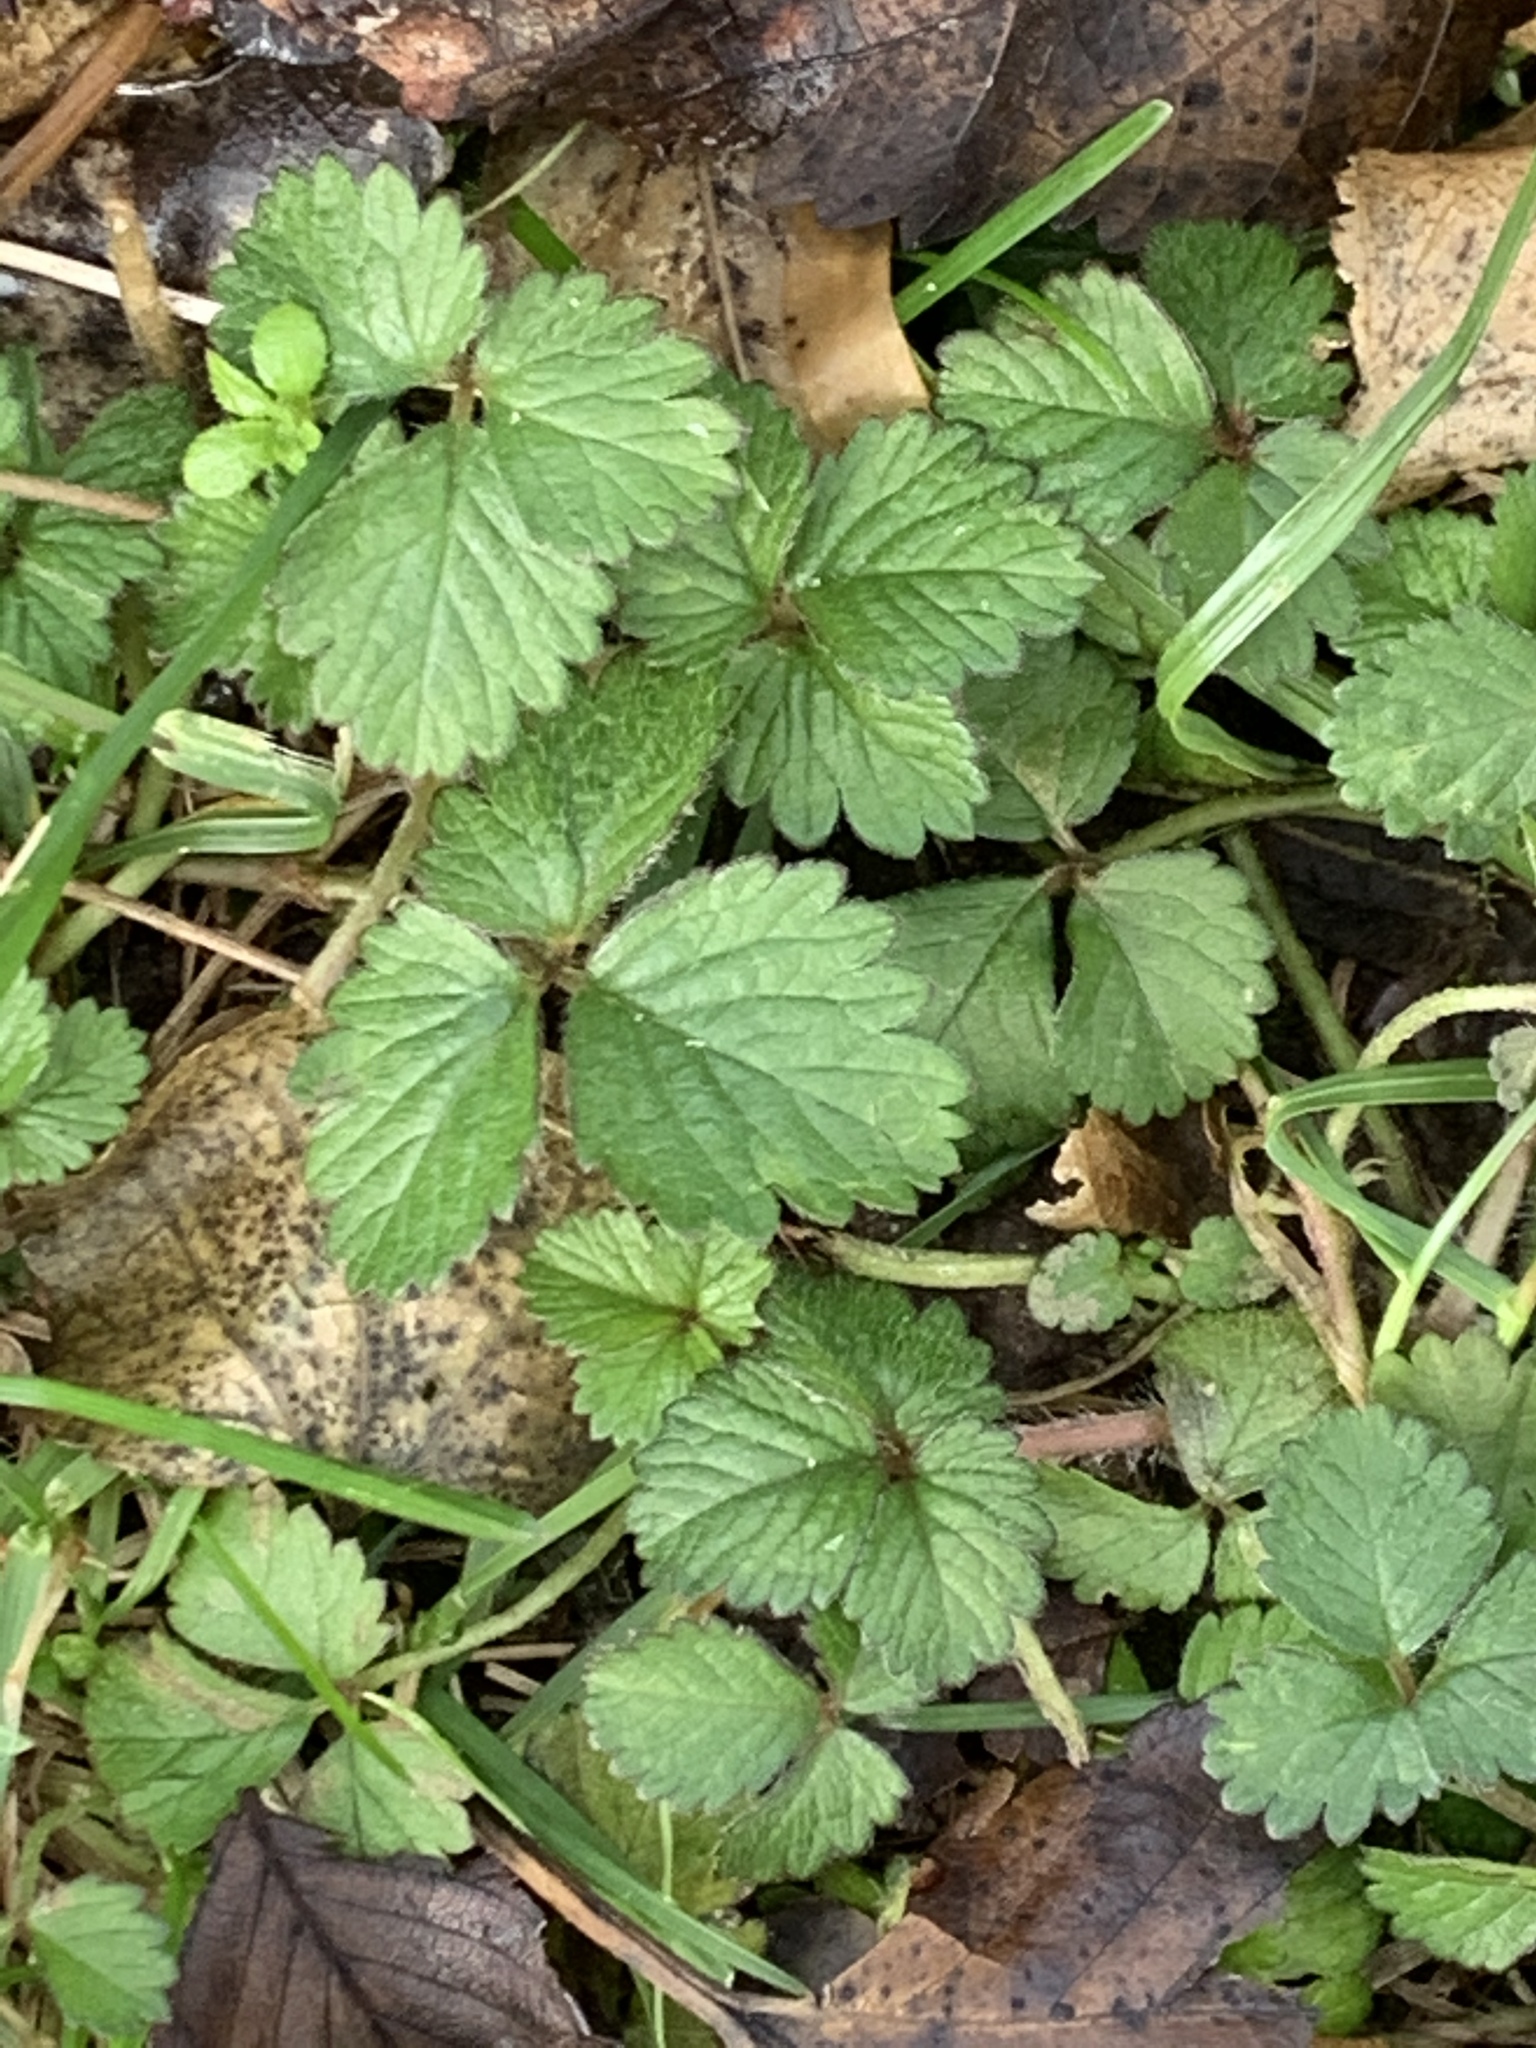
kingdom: Plantae
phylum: Tracheophyta
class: Magnoliopsida
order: Rosales
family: Rosaceae
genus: Potentilla
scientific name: Potentilla indica
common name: Yellow-flowered strawberry
